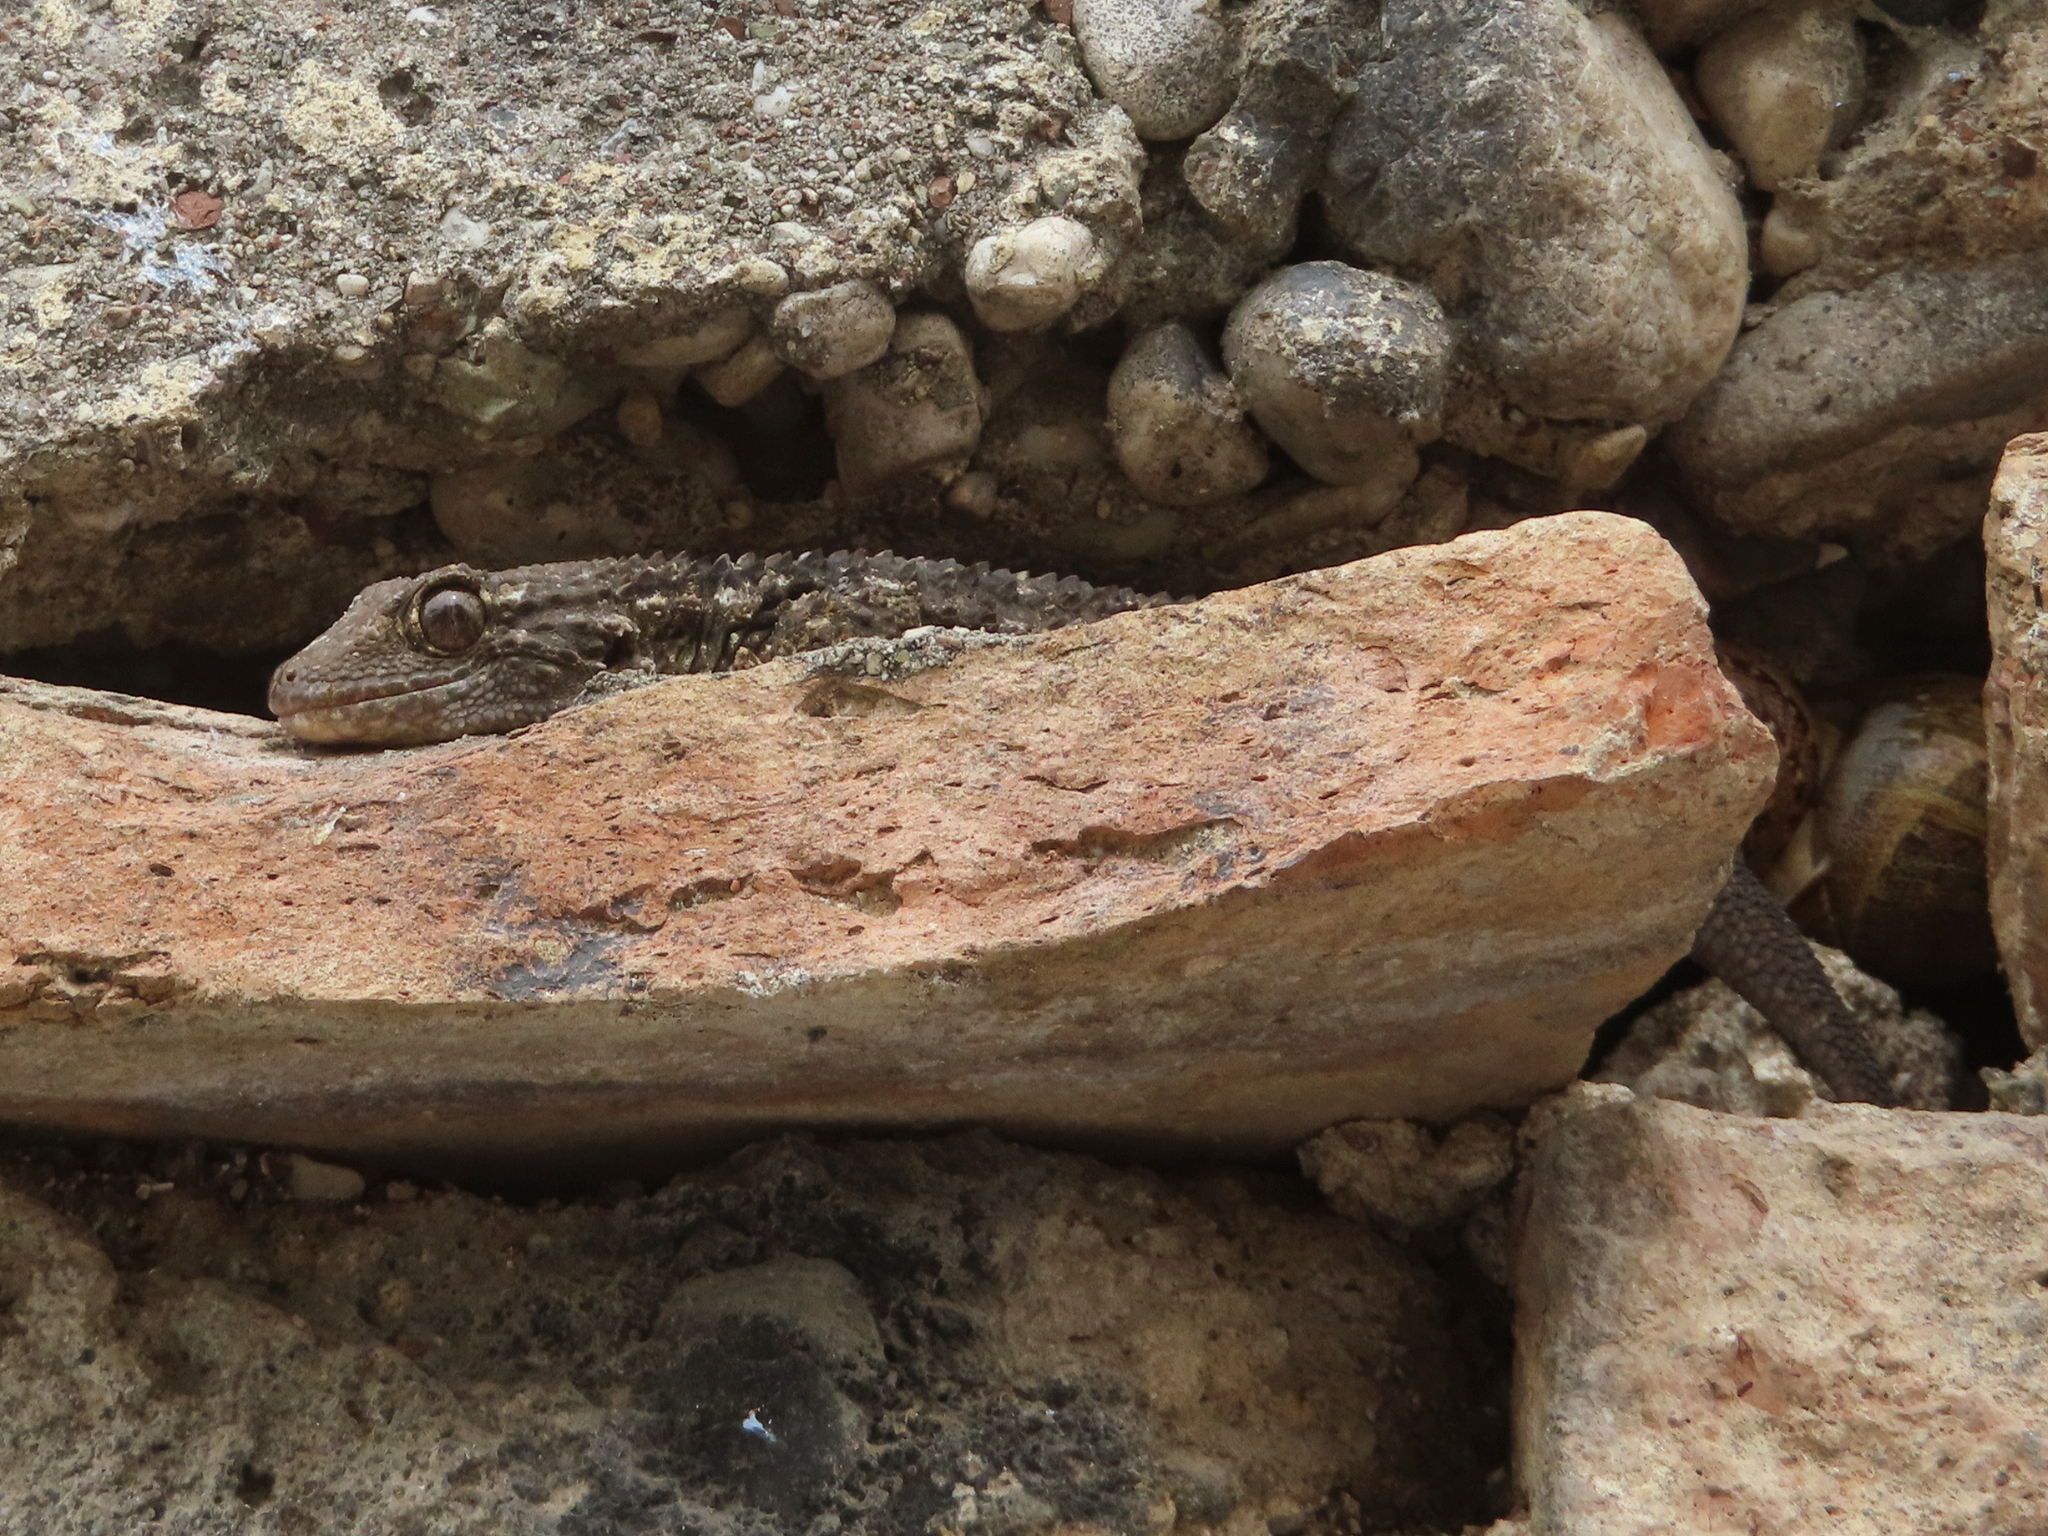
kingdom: Animalia
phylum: Chordata
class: Squamata
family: Phyllodactylidae
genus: Tarentola
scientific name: Tarentola mauritanica
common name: Moorish gecko
